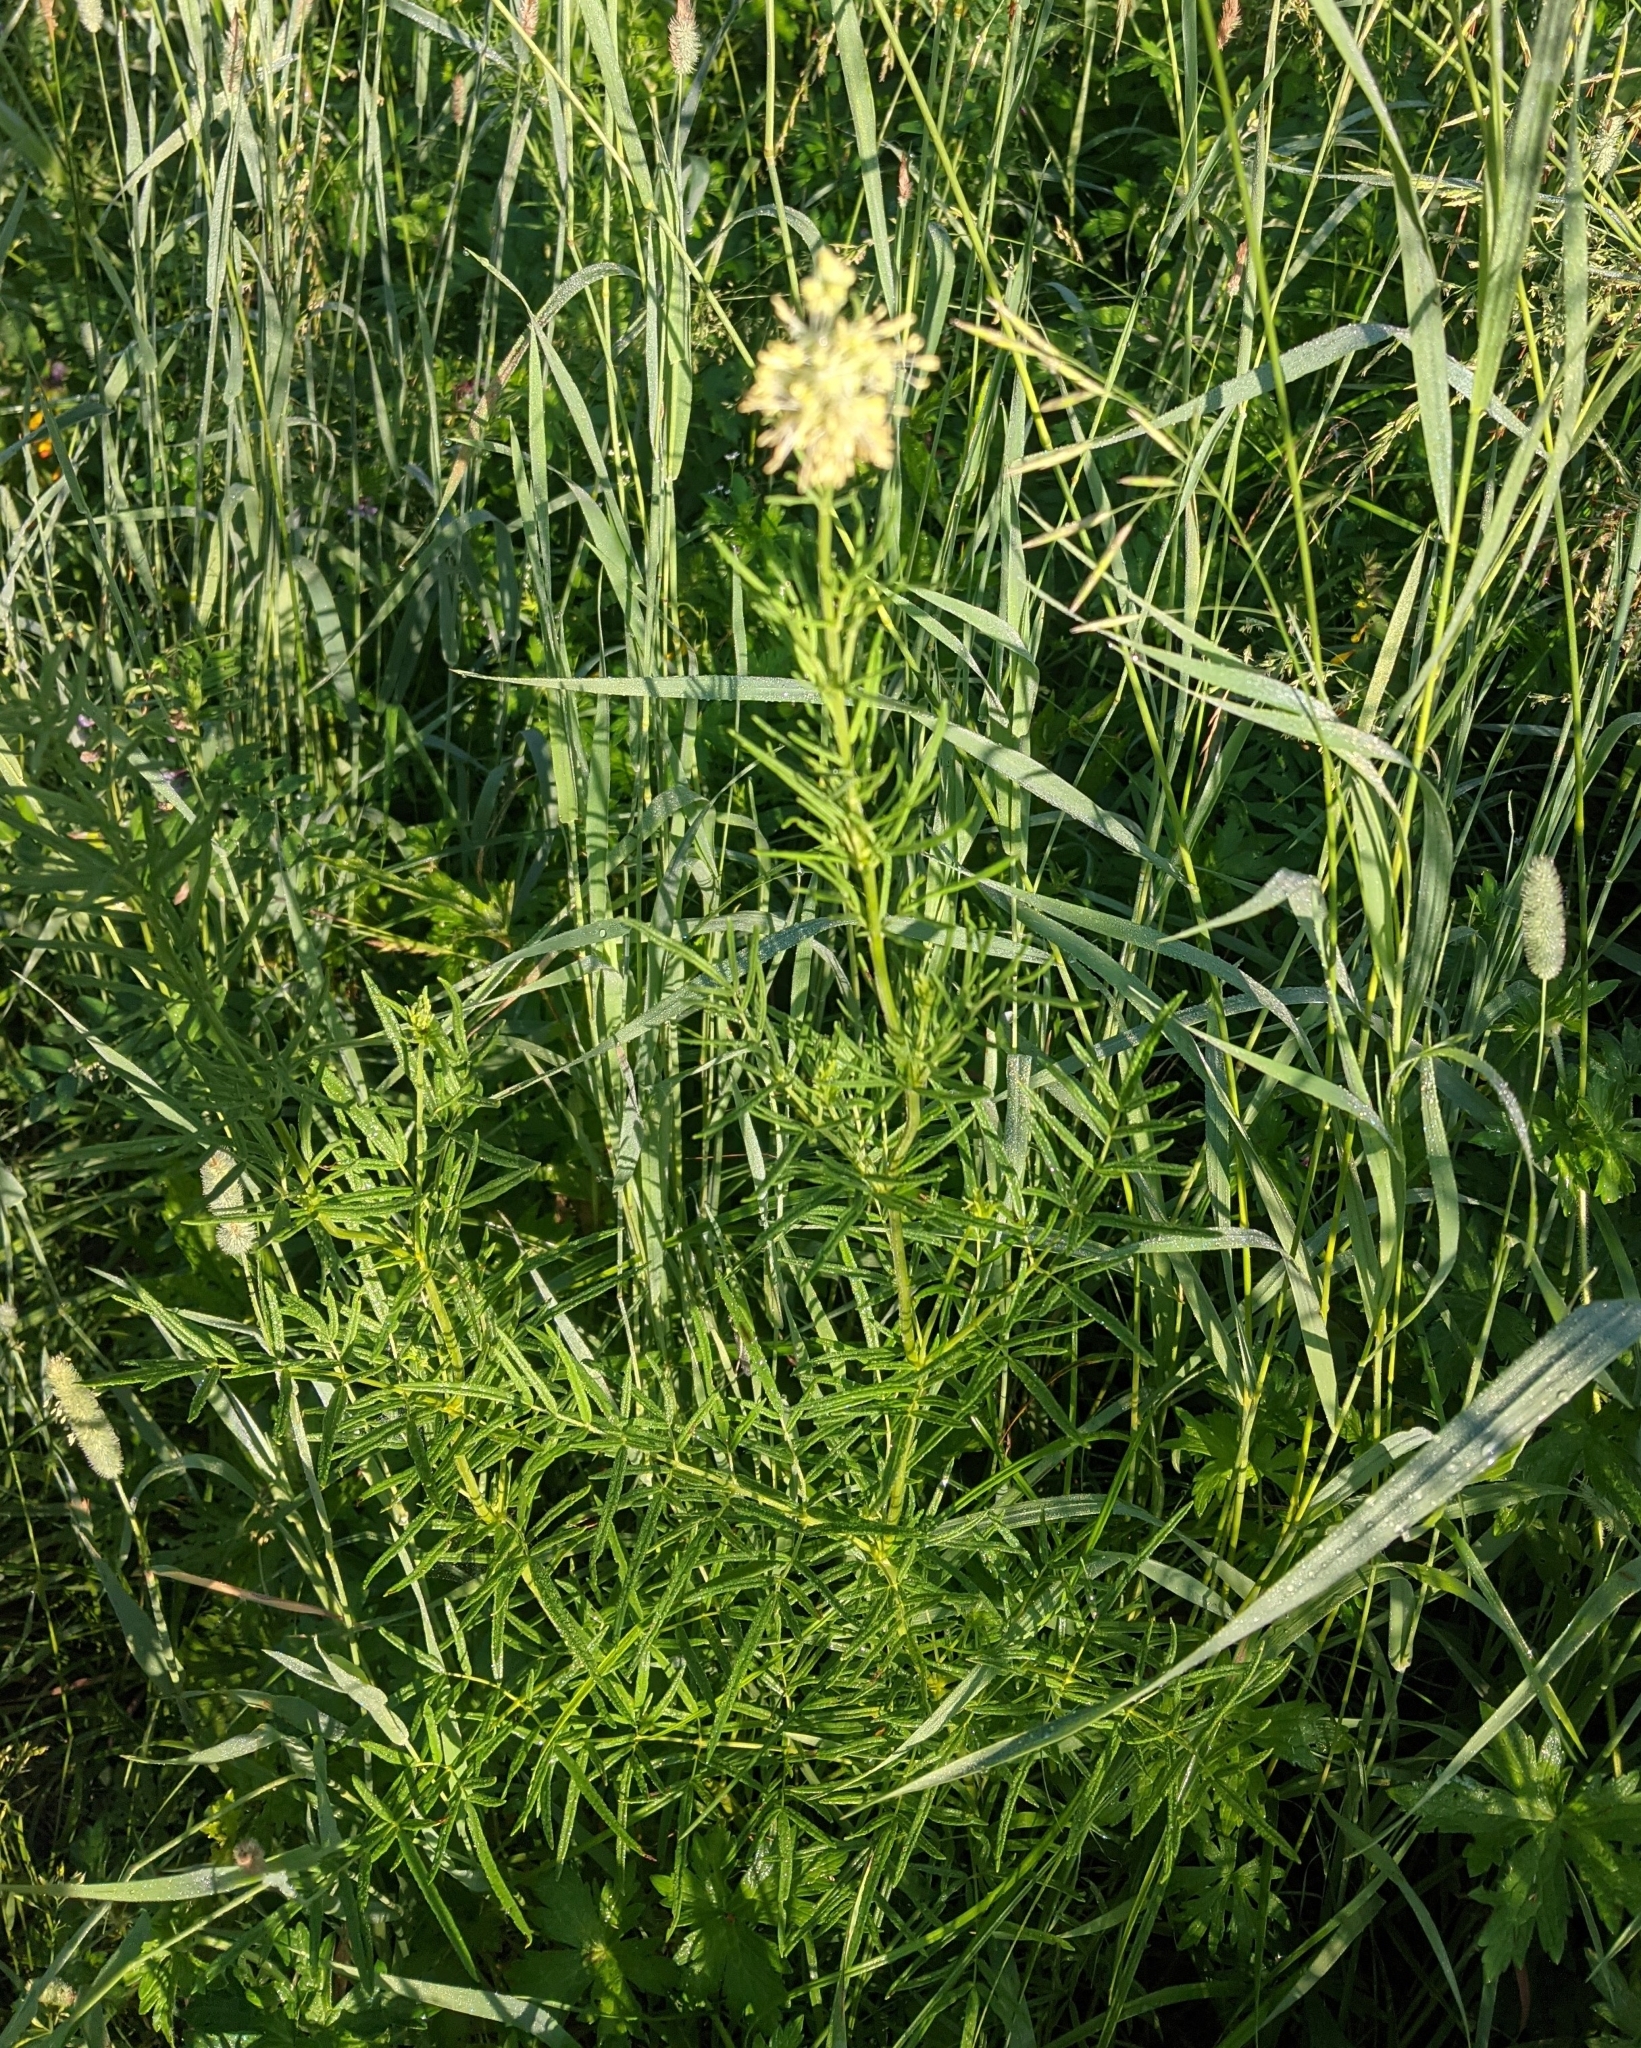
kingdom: Plantae
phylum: Tracheophyta
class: Magnoliopsida
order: Ranunculales
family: Ranunculaceae
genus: Thalictrum
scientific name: Thalictrum lucidum
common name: Shining meadow-rue
